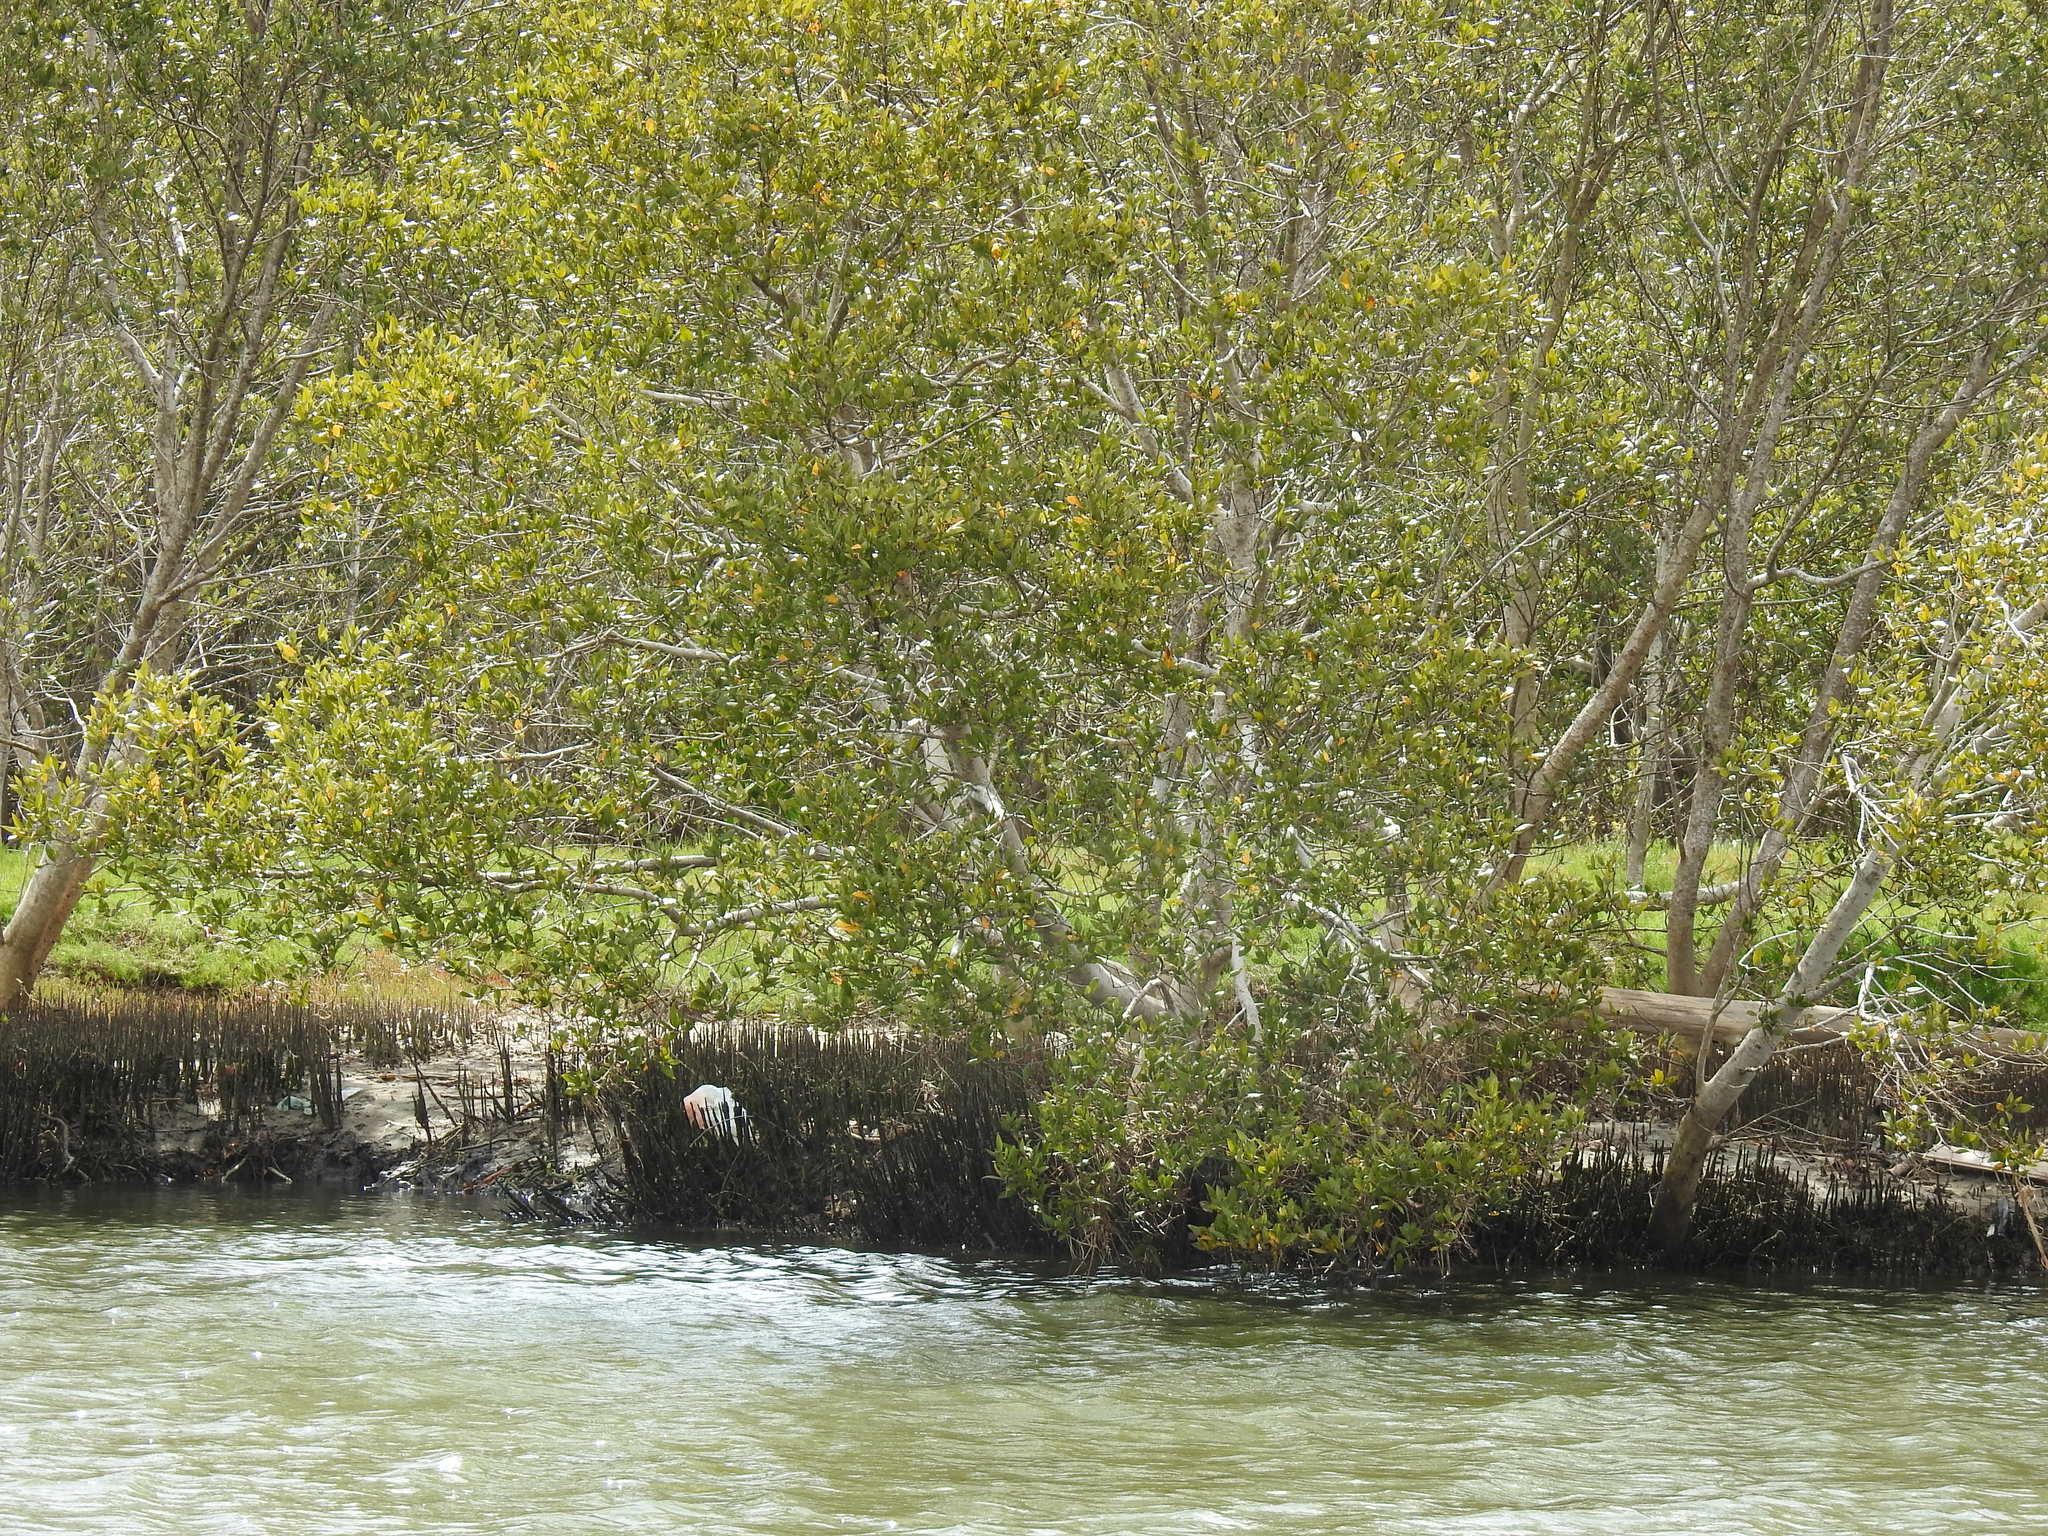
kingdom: Plantae
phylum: Tracheophyta
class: Magnoliopsida
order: Lamiales
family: Acanthaceae
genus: Avicennia
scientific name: Avicennia marina
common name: Gray mangrove
